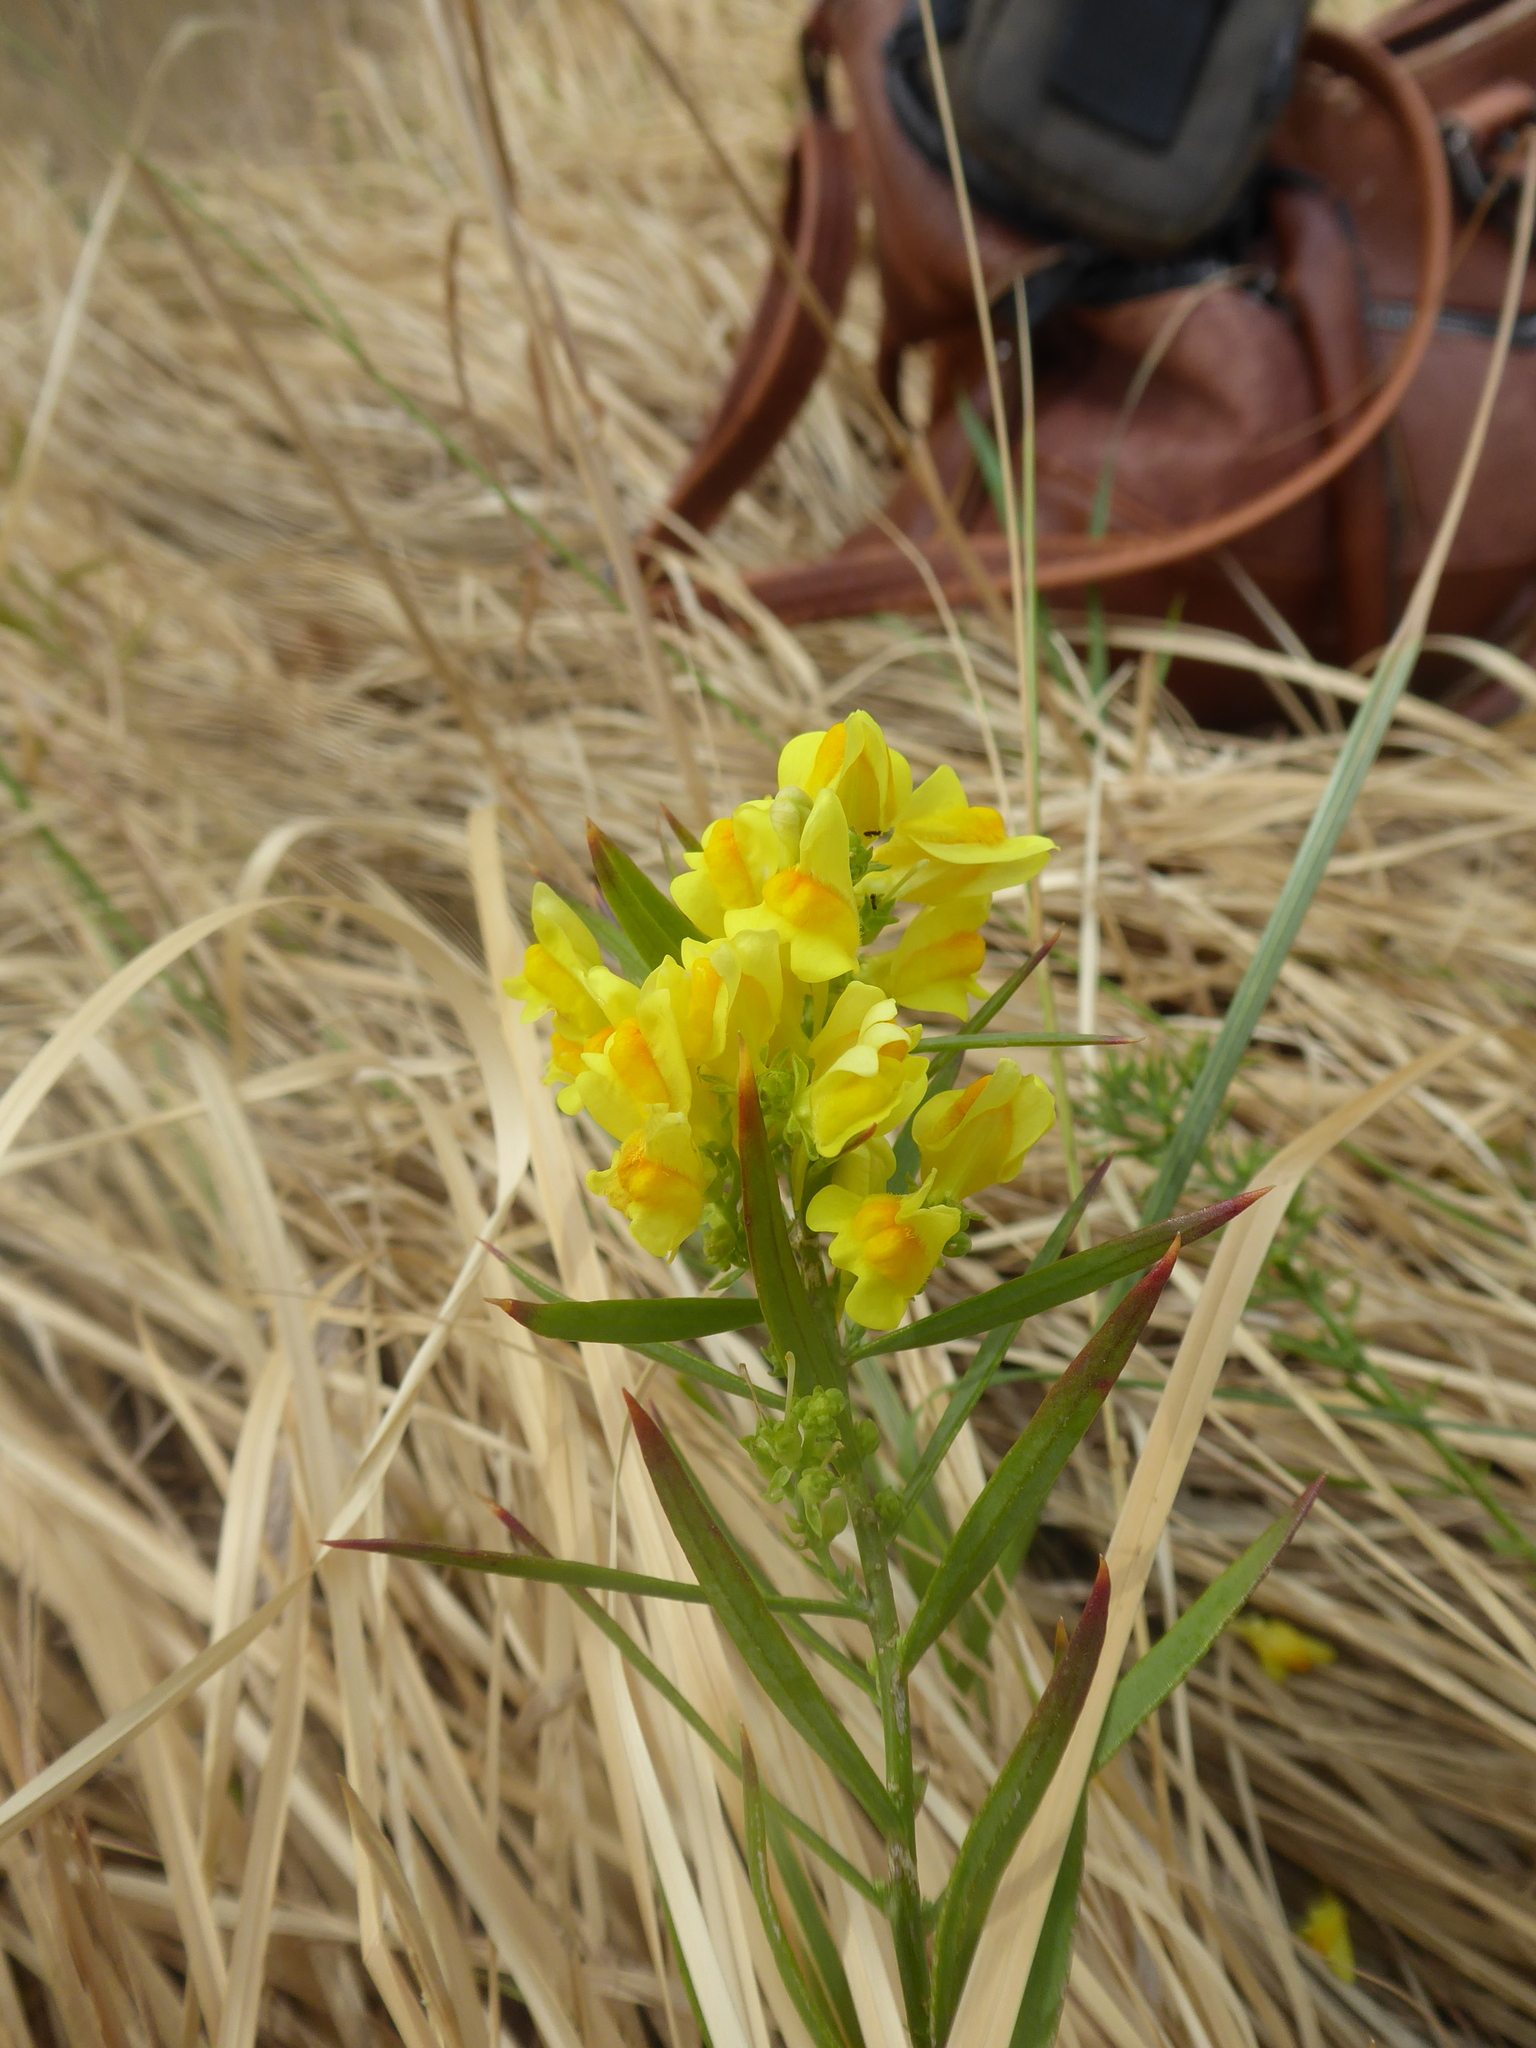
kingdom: Plantae
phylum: Tracheophyta
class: Magnoliopsida
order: Lamiales
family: Plantaginaceae
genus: Linaria
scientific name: Linaria vulgaris
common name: Butter and eggs
